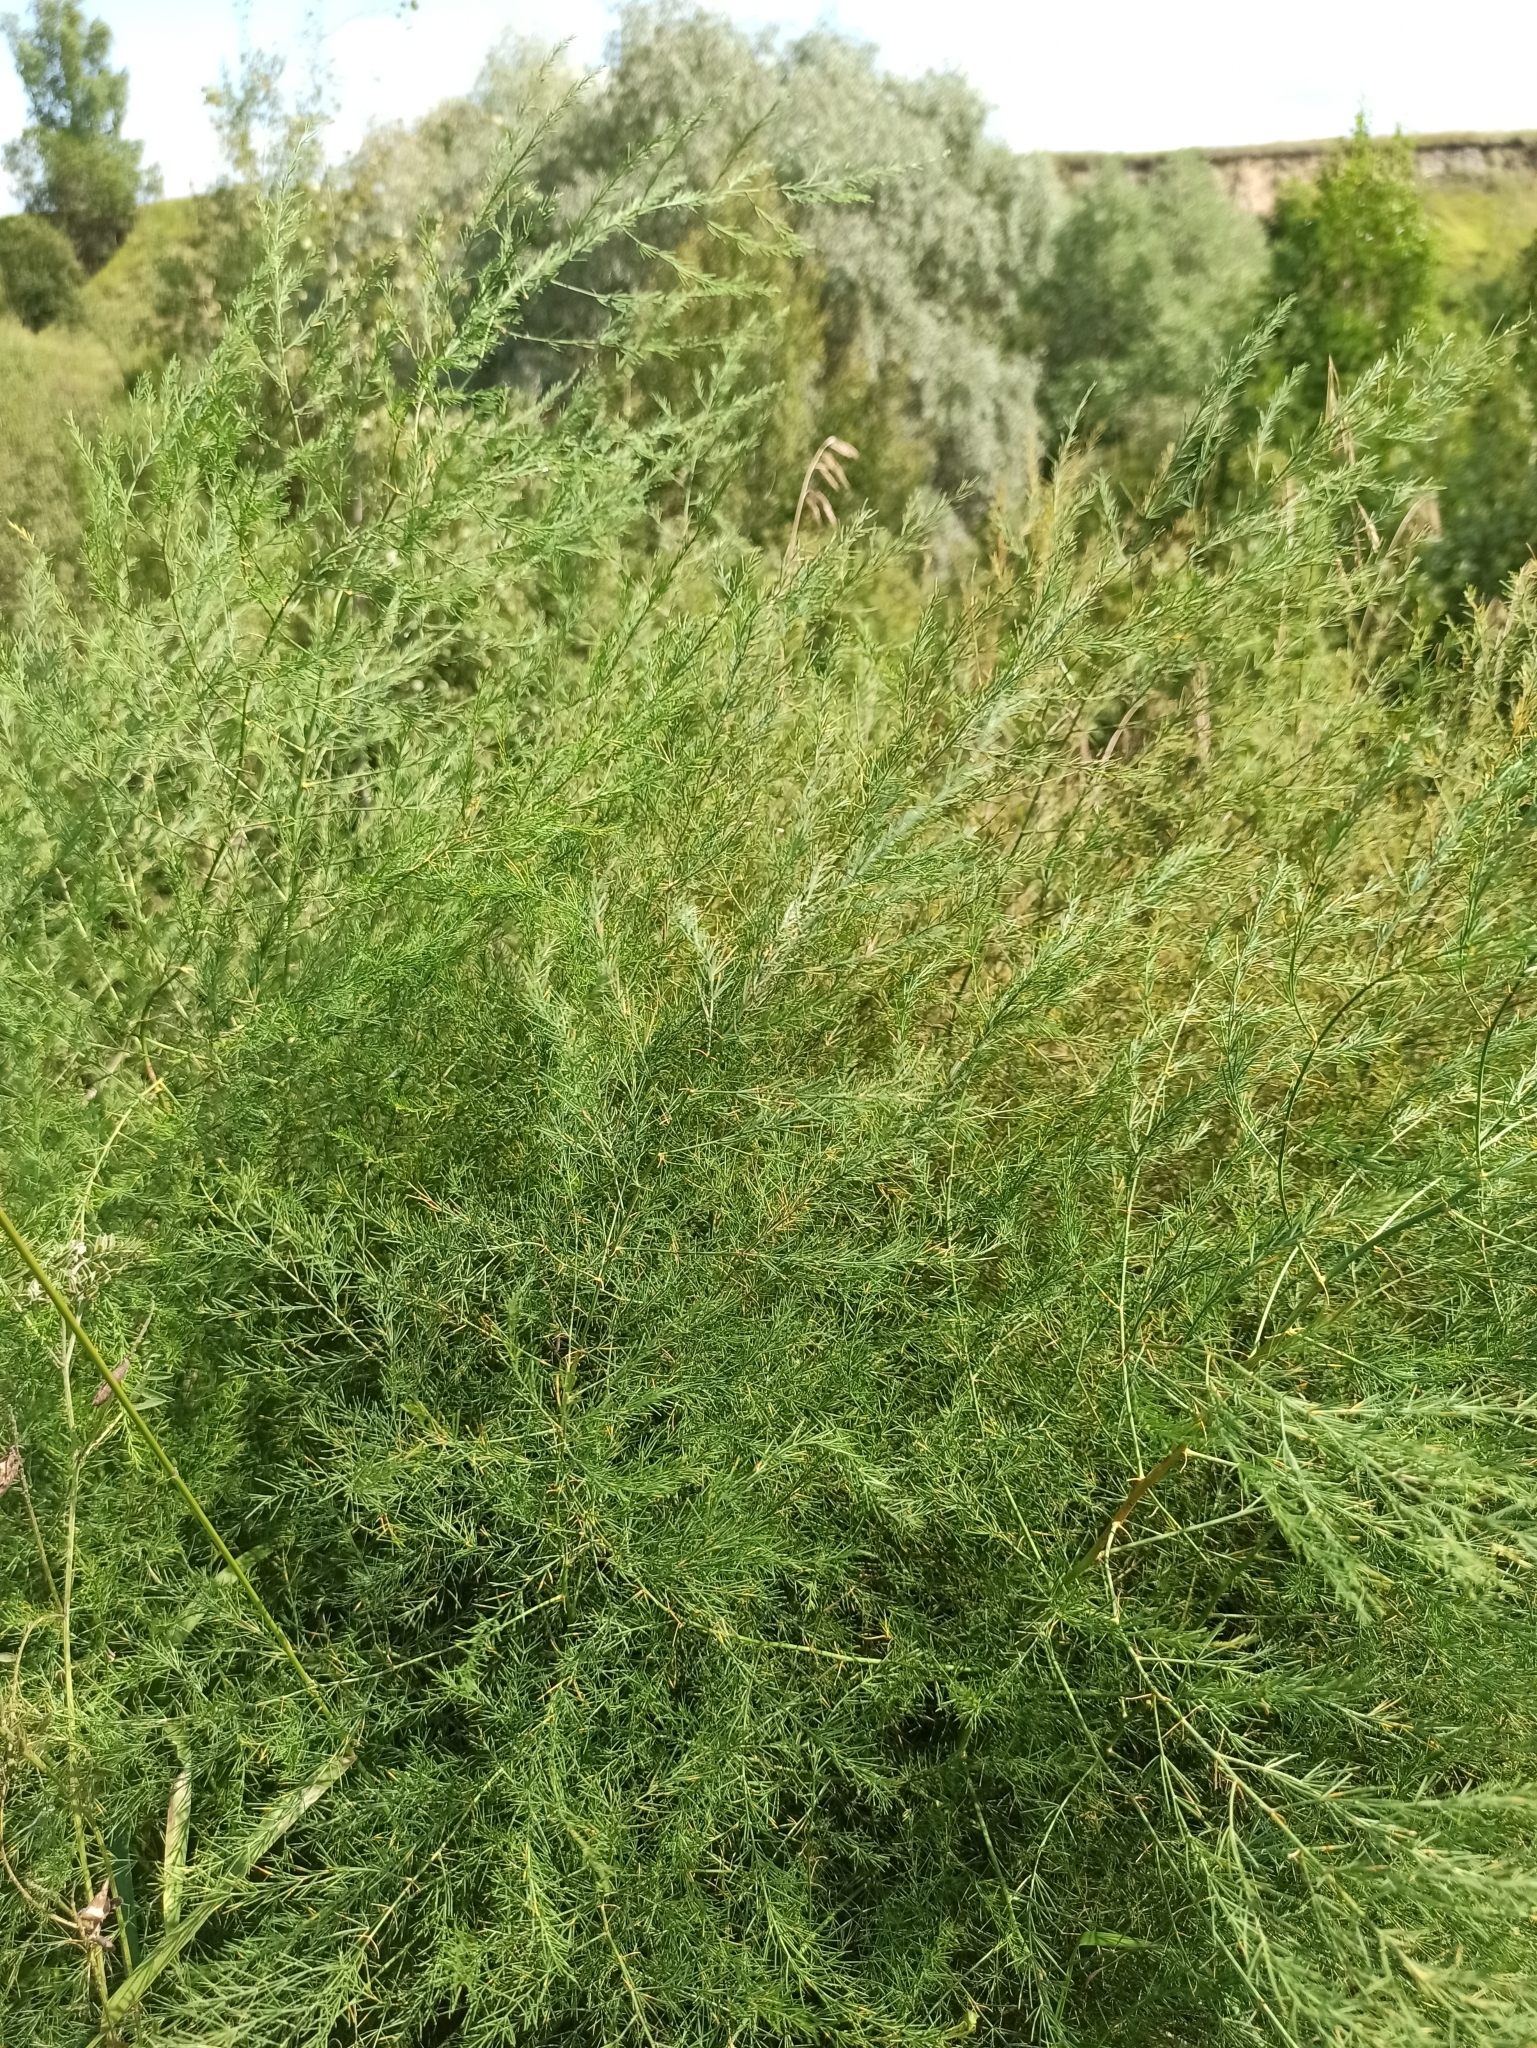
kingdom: Plantae
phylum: Tracheophyta
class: Liliopsida
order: Asparagales
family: Asparagaceae
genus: Asparagus
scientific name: Asparagus officinalis
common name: Garden asparagus
